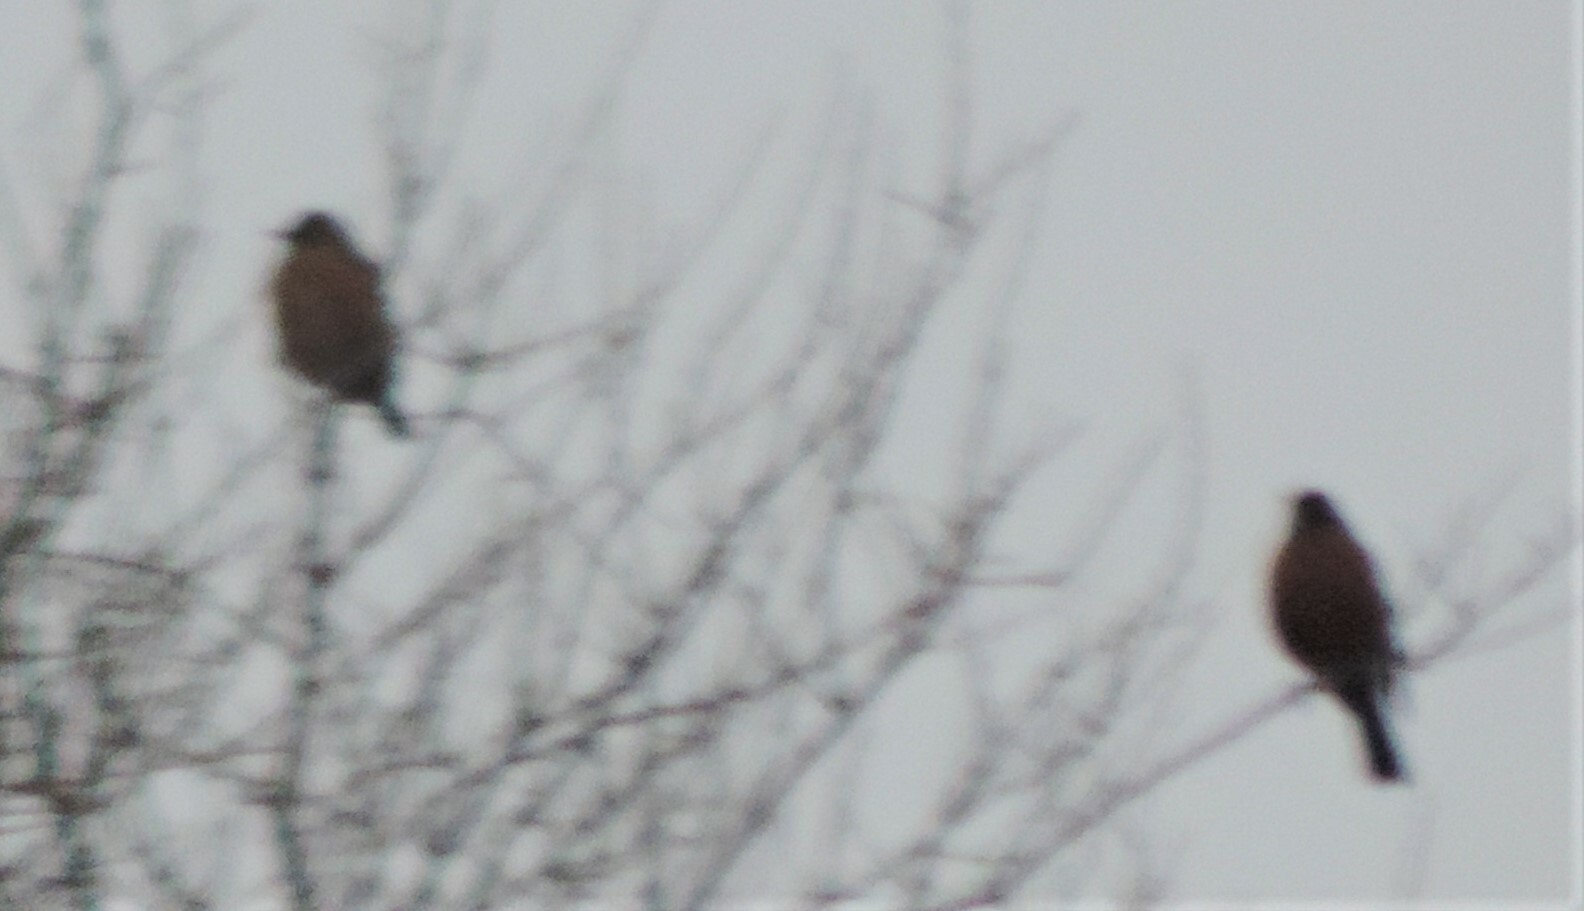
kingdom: Animalia
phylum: Chordata
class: Aves
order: Passeriformes
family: Turdidae
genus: Turdus
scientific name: Turdus migratorius
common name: American robin
